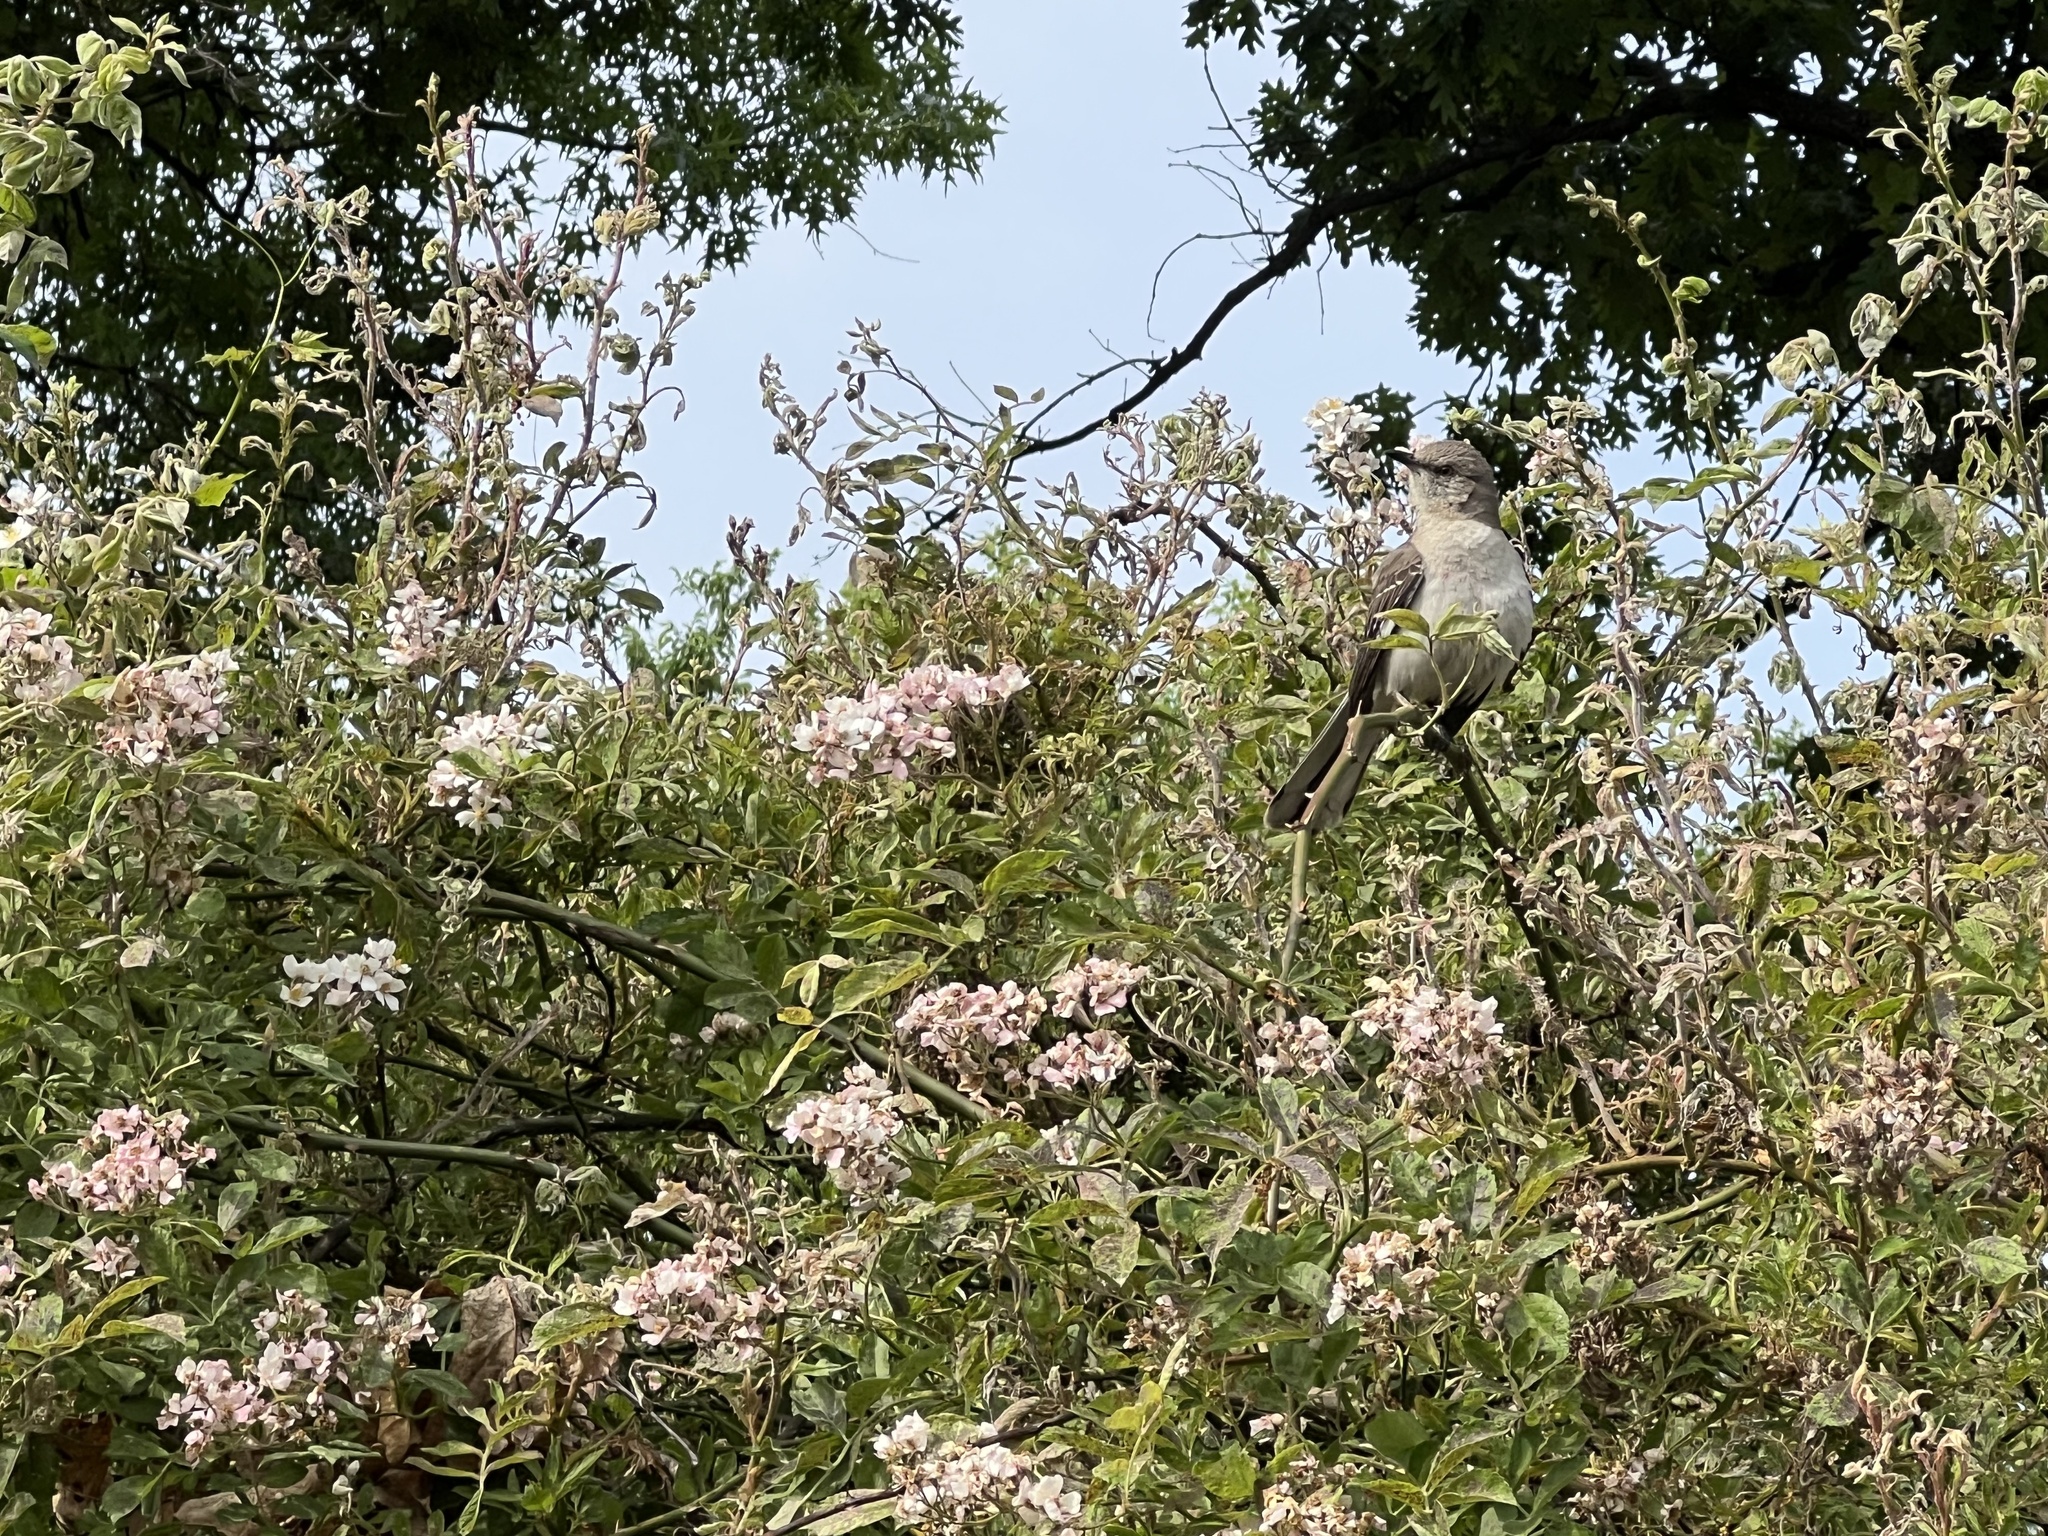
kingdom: Animalia
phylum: Chordata
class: Aves
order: Passeriformes
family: Mimidae
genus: Mimus
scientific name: Mimus polyglottos
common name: Northern mockingbird
